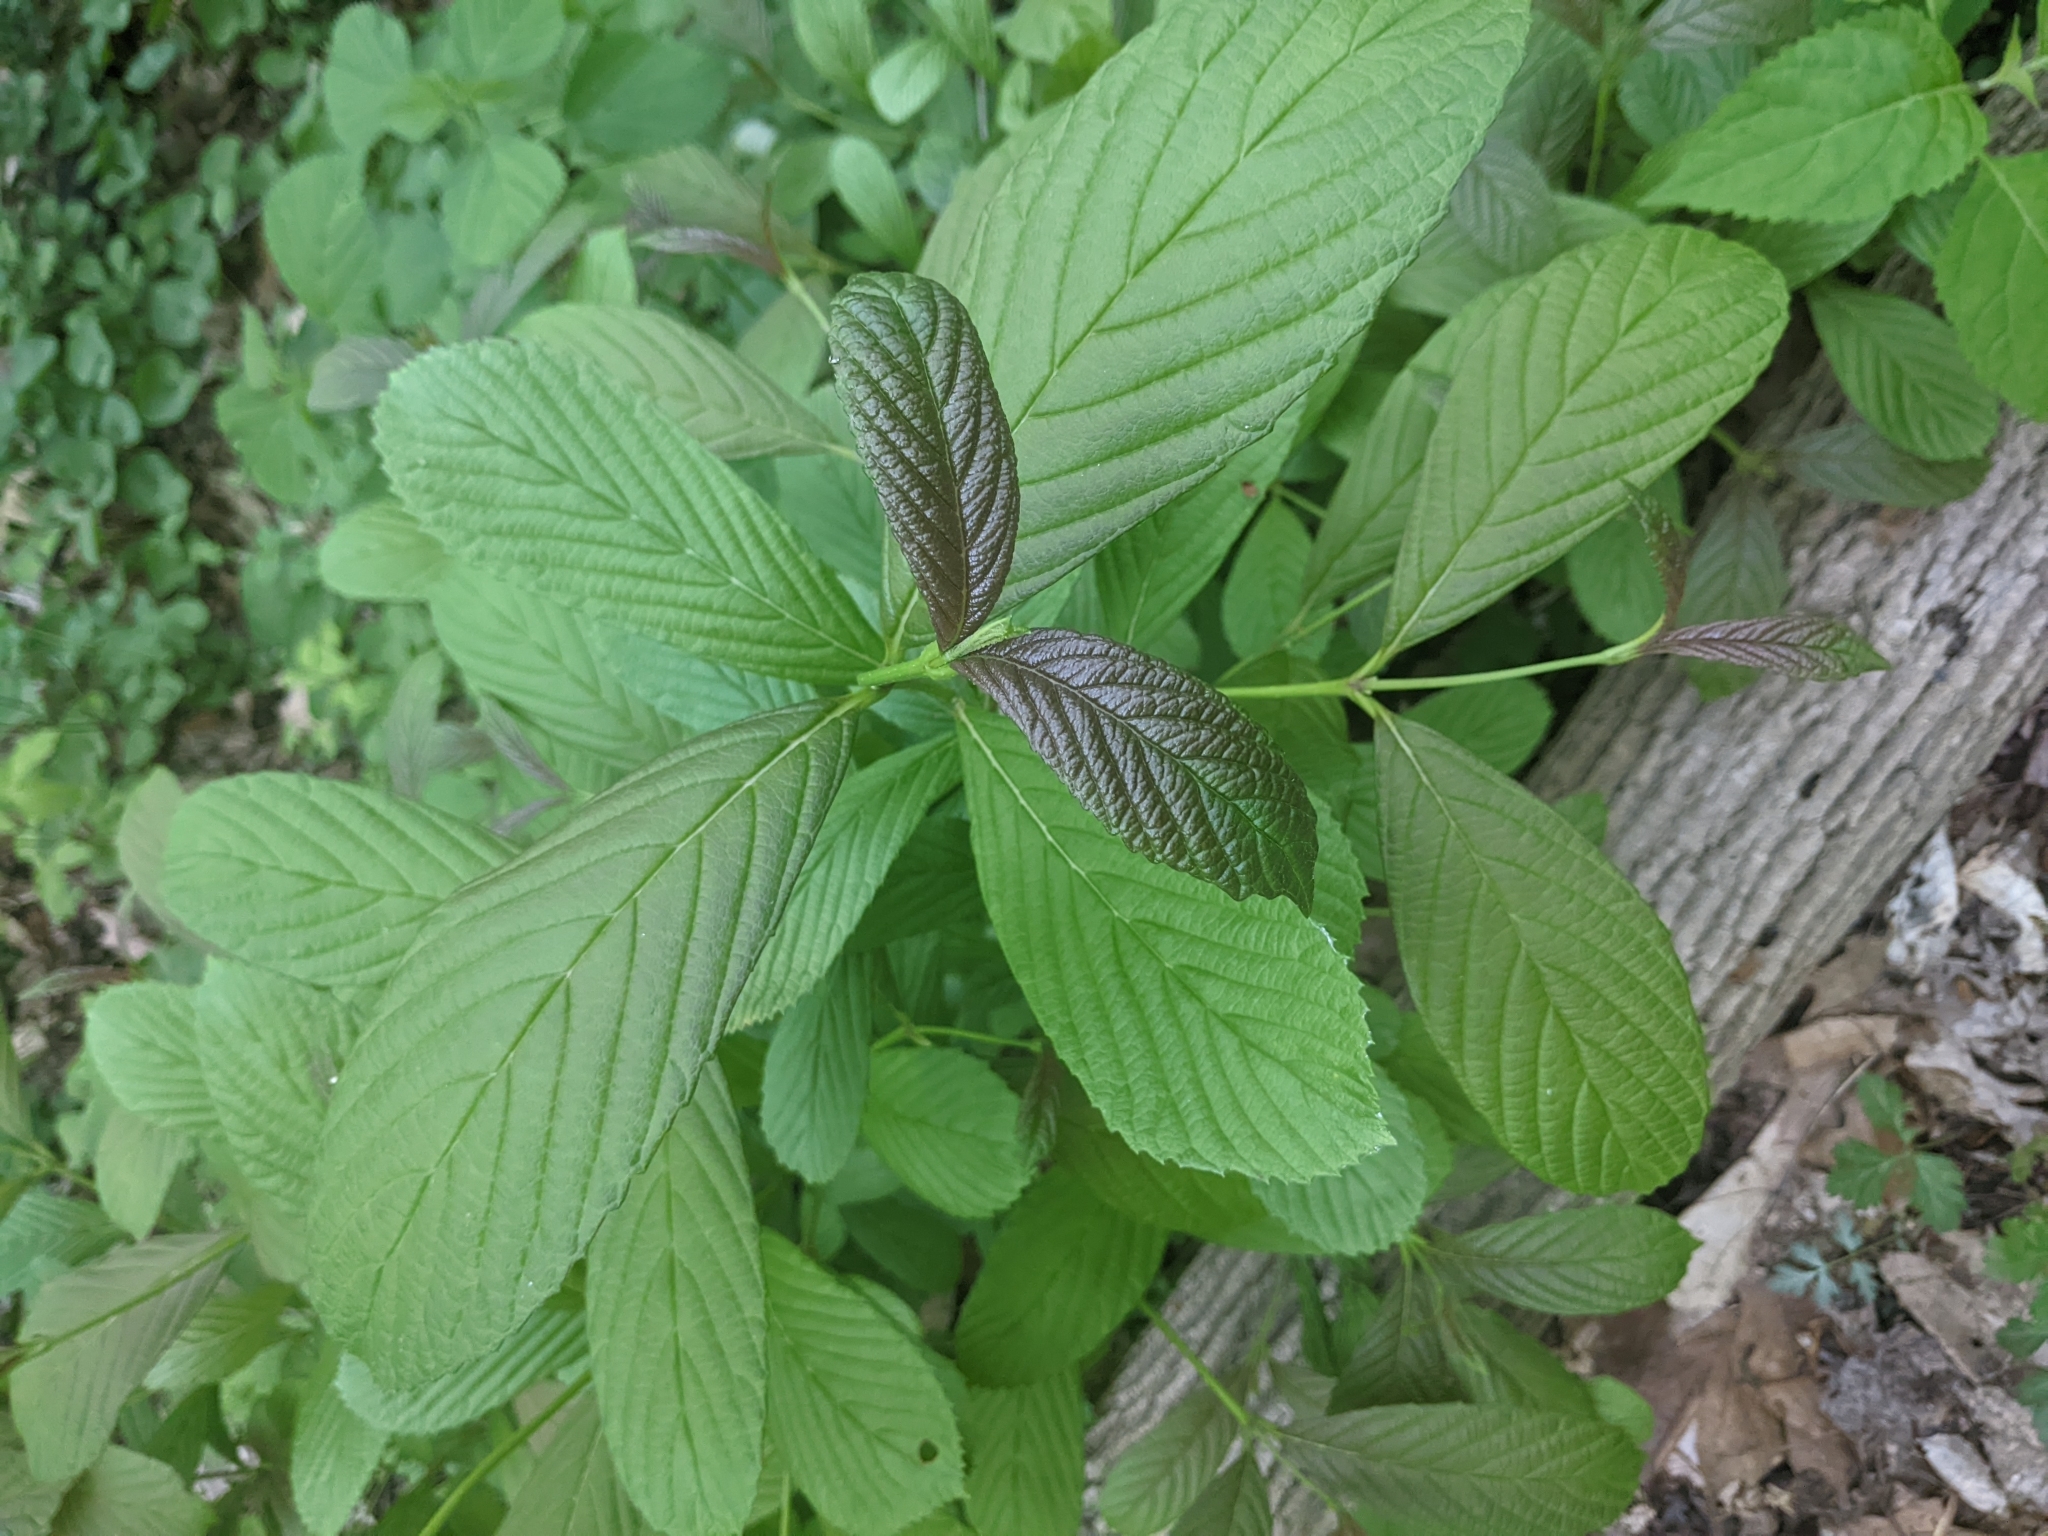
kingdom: Plantae
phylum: Tracheophyta
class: Magnoliopsida
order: Dipsacales
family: Viburnaceae
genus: Viburnum
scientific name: Viburnum sieboldii
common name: Siebold's arrowwood
